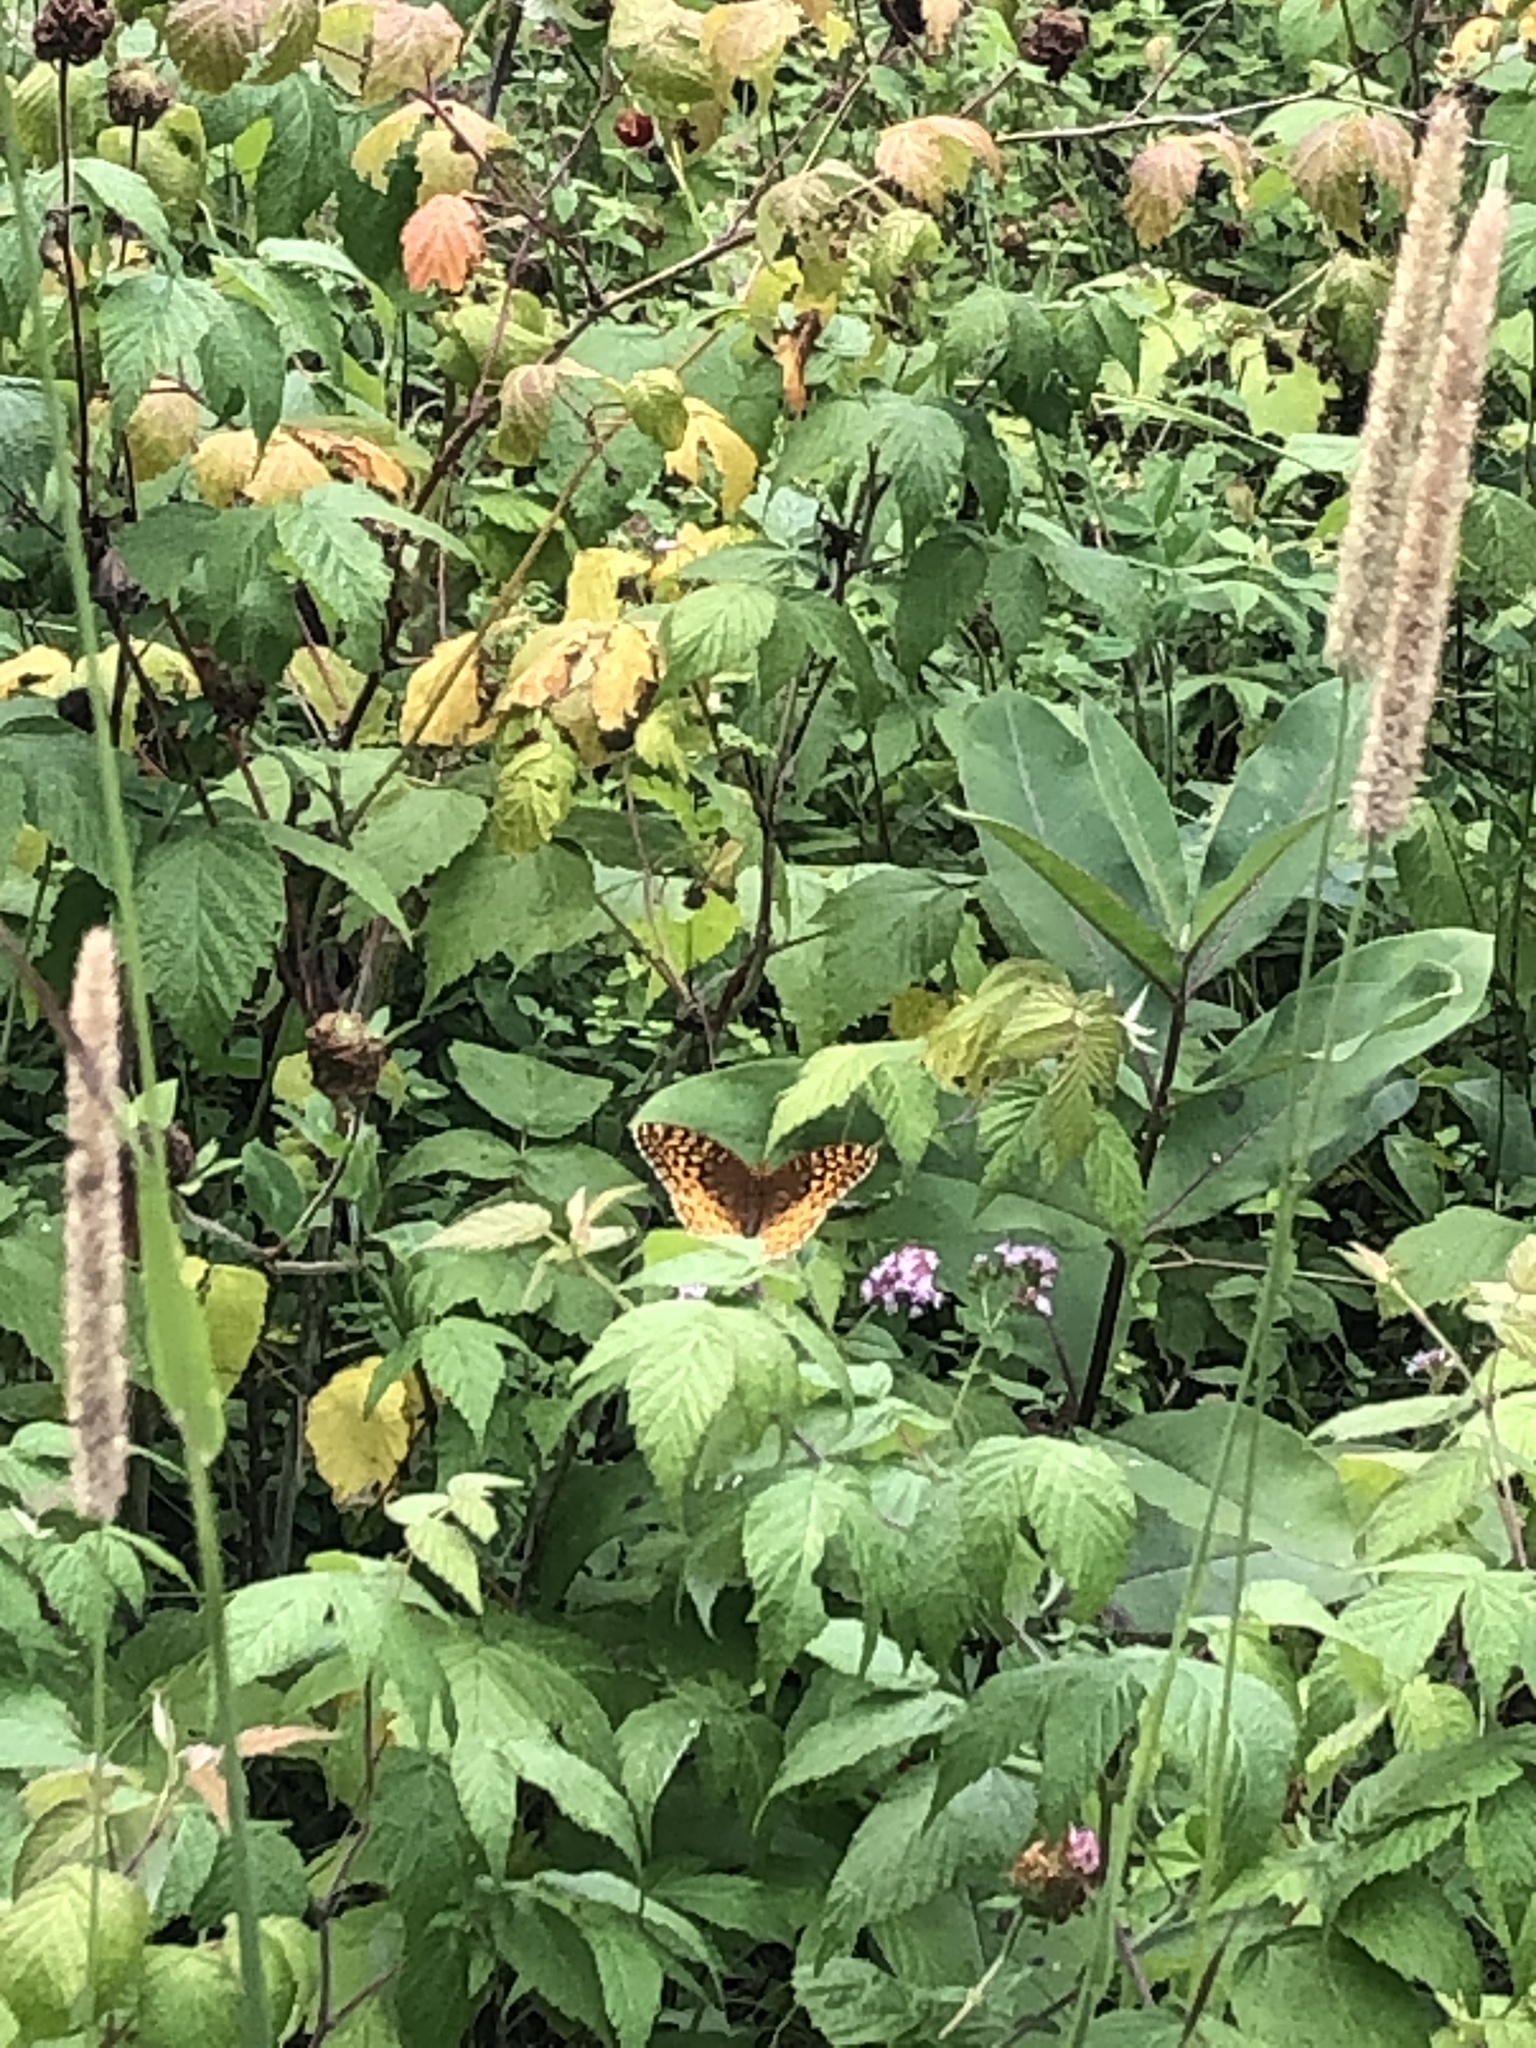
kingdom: Animalia
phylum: Arthropoda
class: Insecta
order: Lepidoptera
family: Nymphalidae
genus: Speyeria
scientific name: Speyeria cybele
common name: Great spangled fritillary
